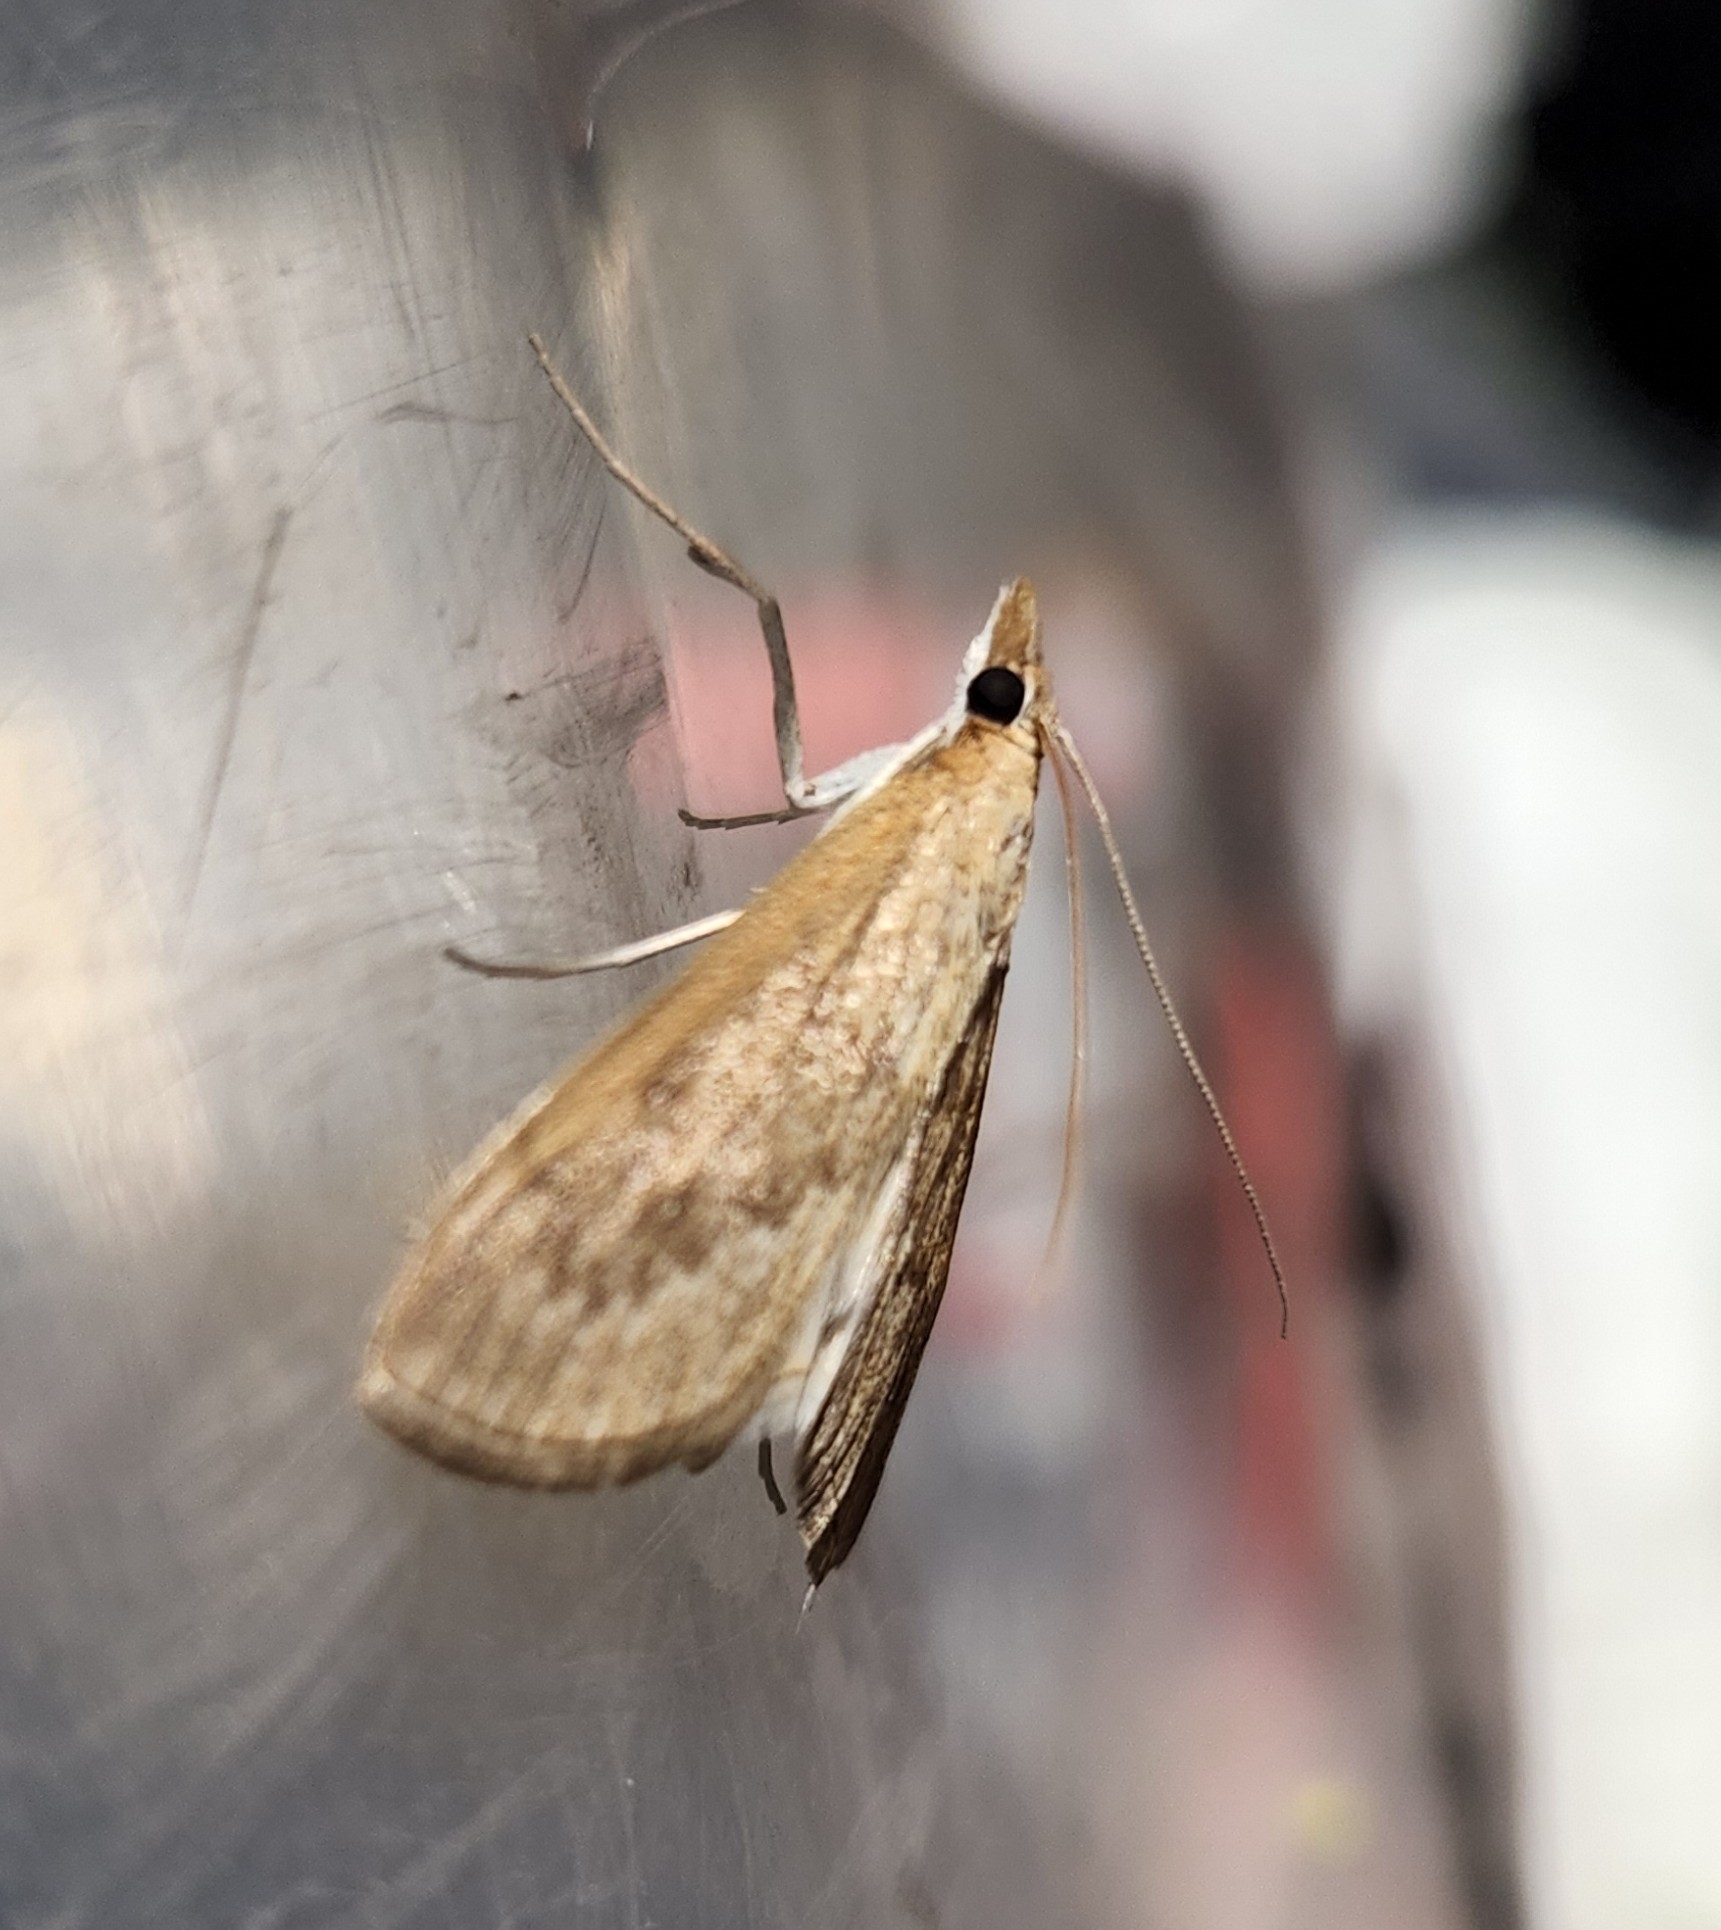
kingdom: Animalia
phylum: Arthropoda
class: Insecta
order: Lepidoptera
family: Crambidae
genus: Saucrobotys
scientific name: Saucrobotys futilalis
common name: Dogbane saucrobotys moth
